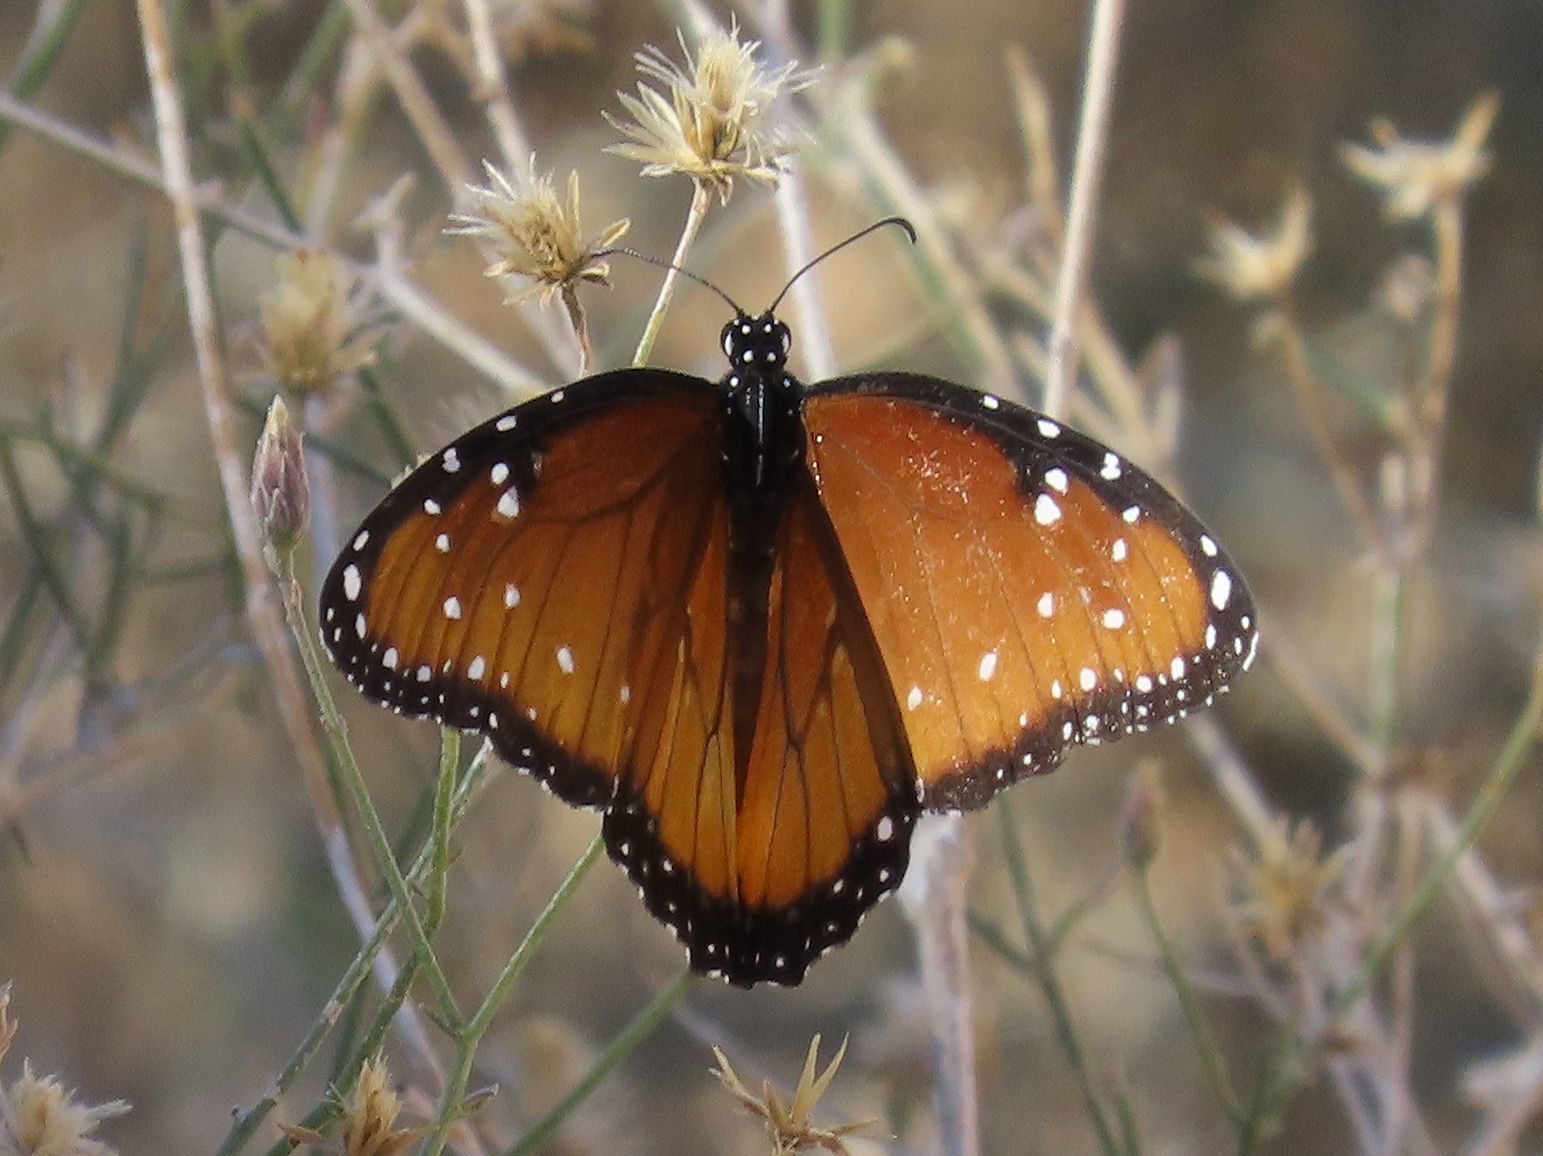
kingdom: Animalia
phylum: Arthropoda
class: Insecta
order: Lepidoptera
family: Nymphalidae
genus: Danaus
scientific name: Danaus gilippus
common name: Queen
